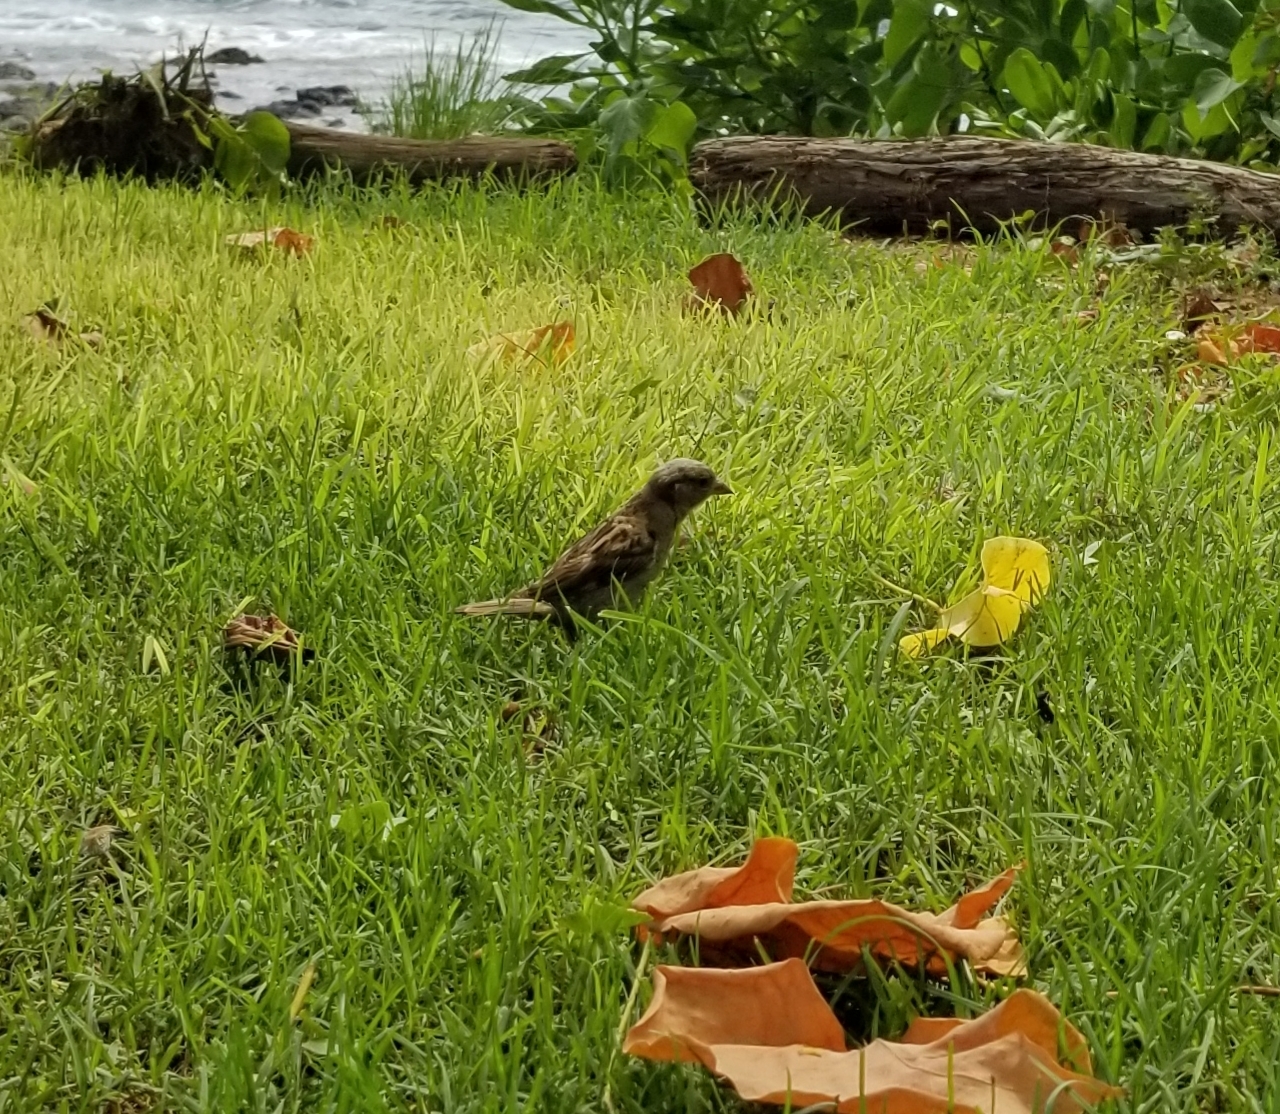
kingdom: Animalia
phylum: Chordata
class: Aves
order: Passeriformes
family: Passeridae
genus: Passer
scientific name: Passer domesticus
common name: House sparrow
